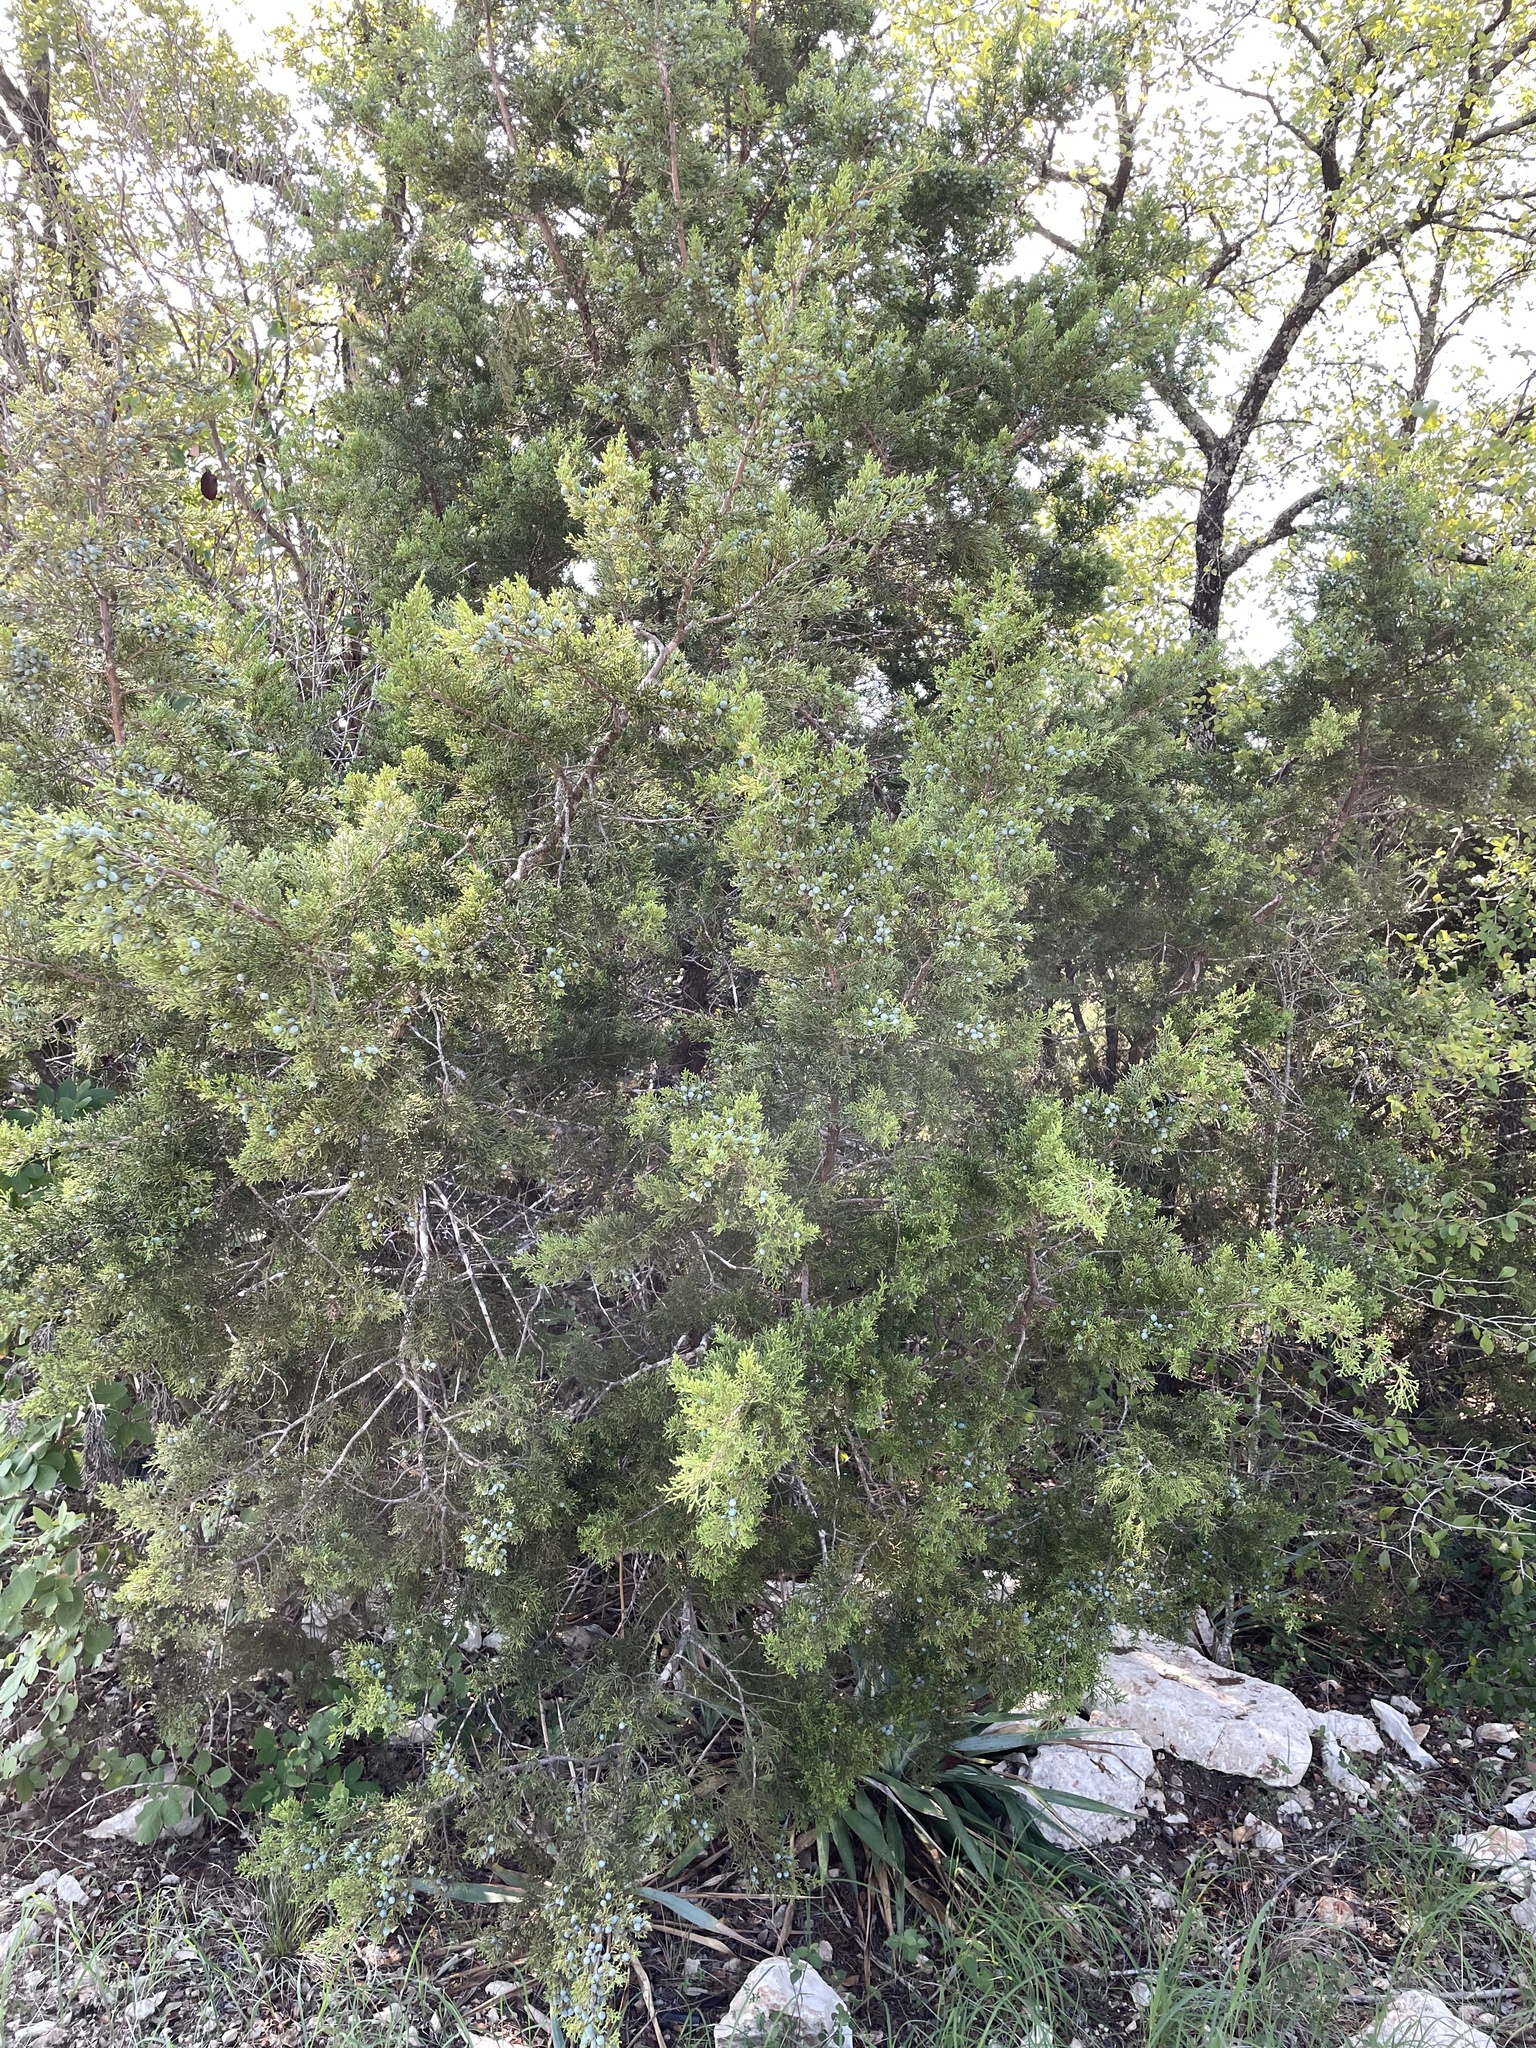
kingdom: Plantae
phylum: Tracheophyta
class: Pinopsida
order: Pinales
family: Cupressaceae
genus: Juniperus
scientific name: Juniperus ashei
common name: Mexican juniper
